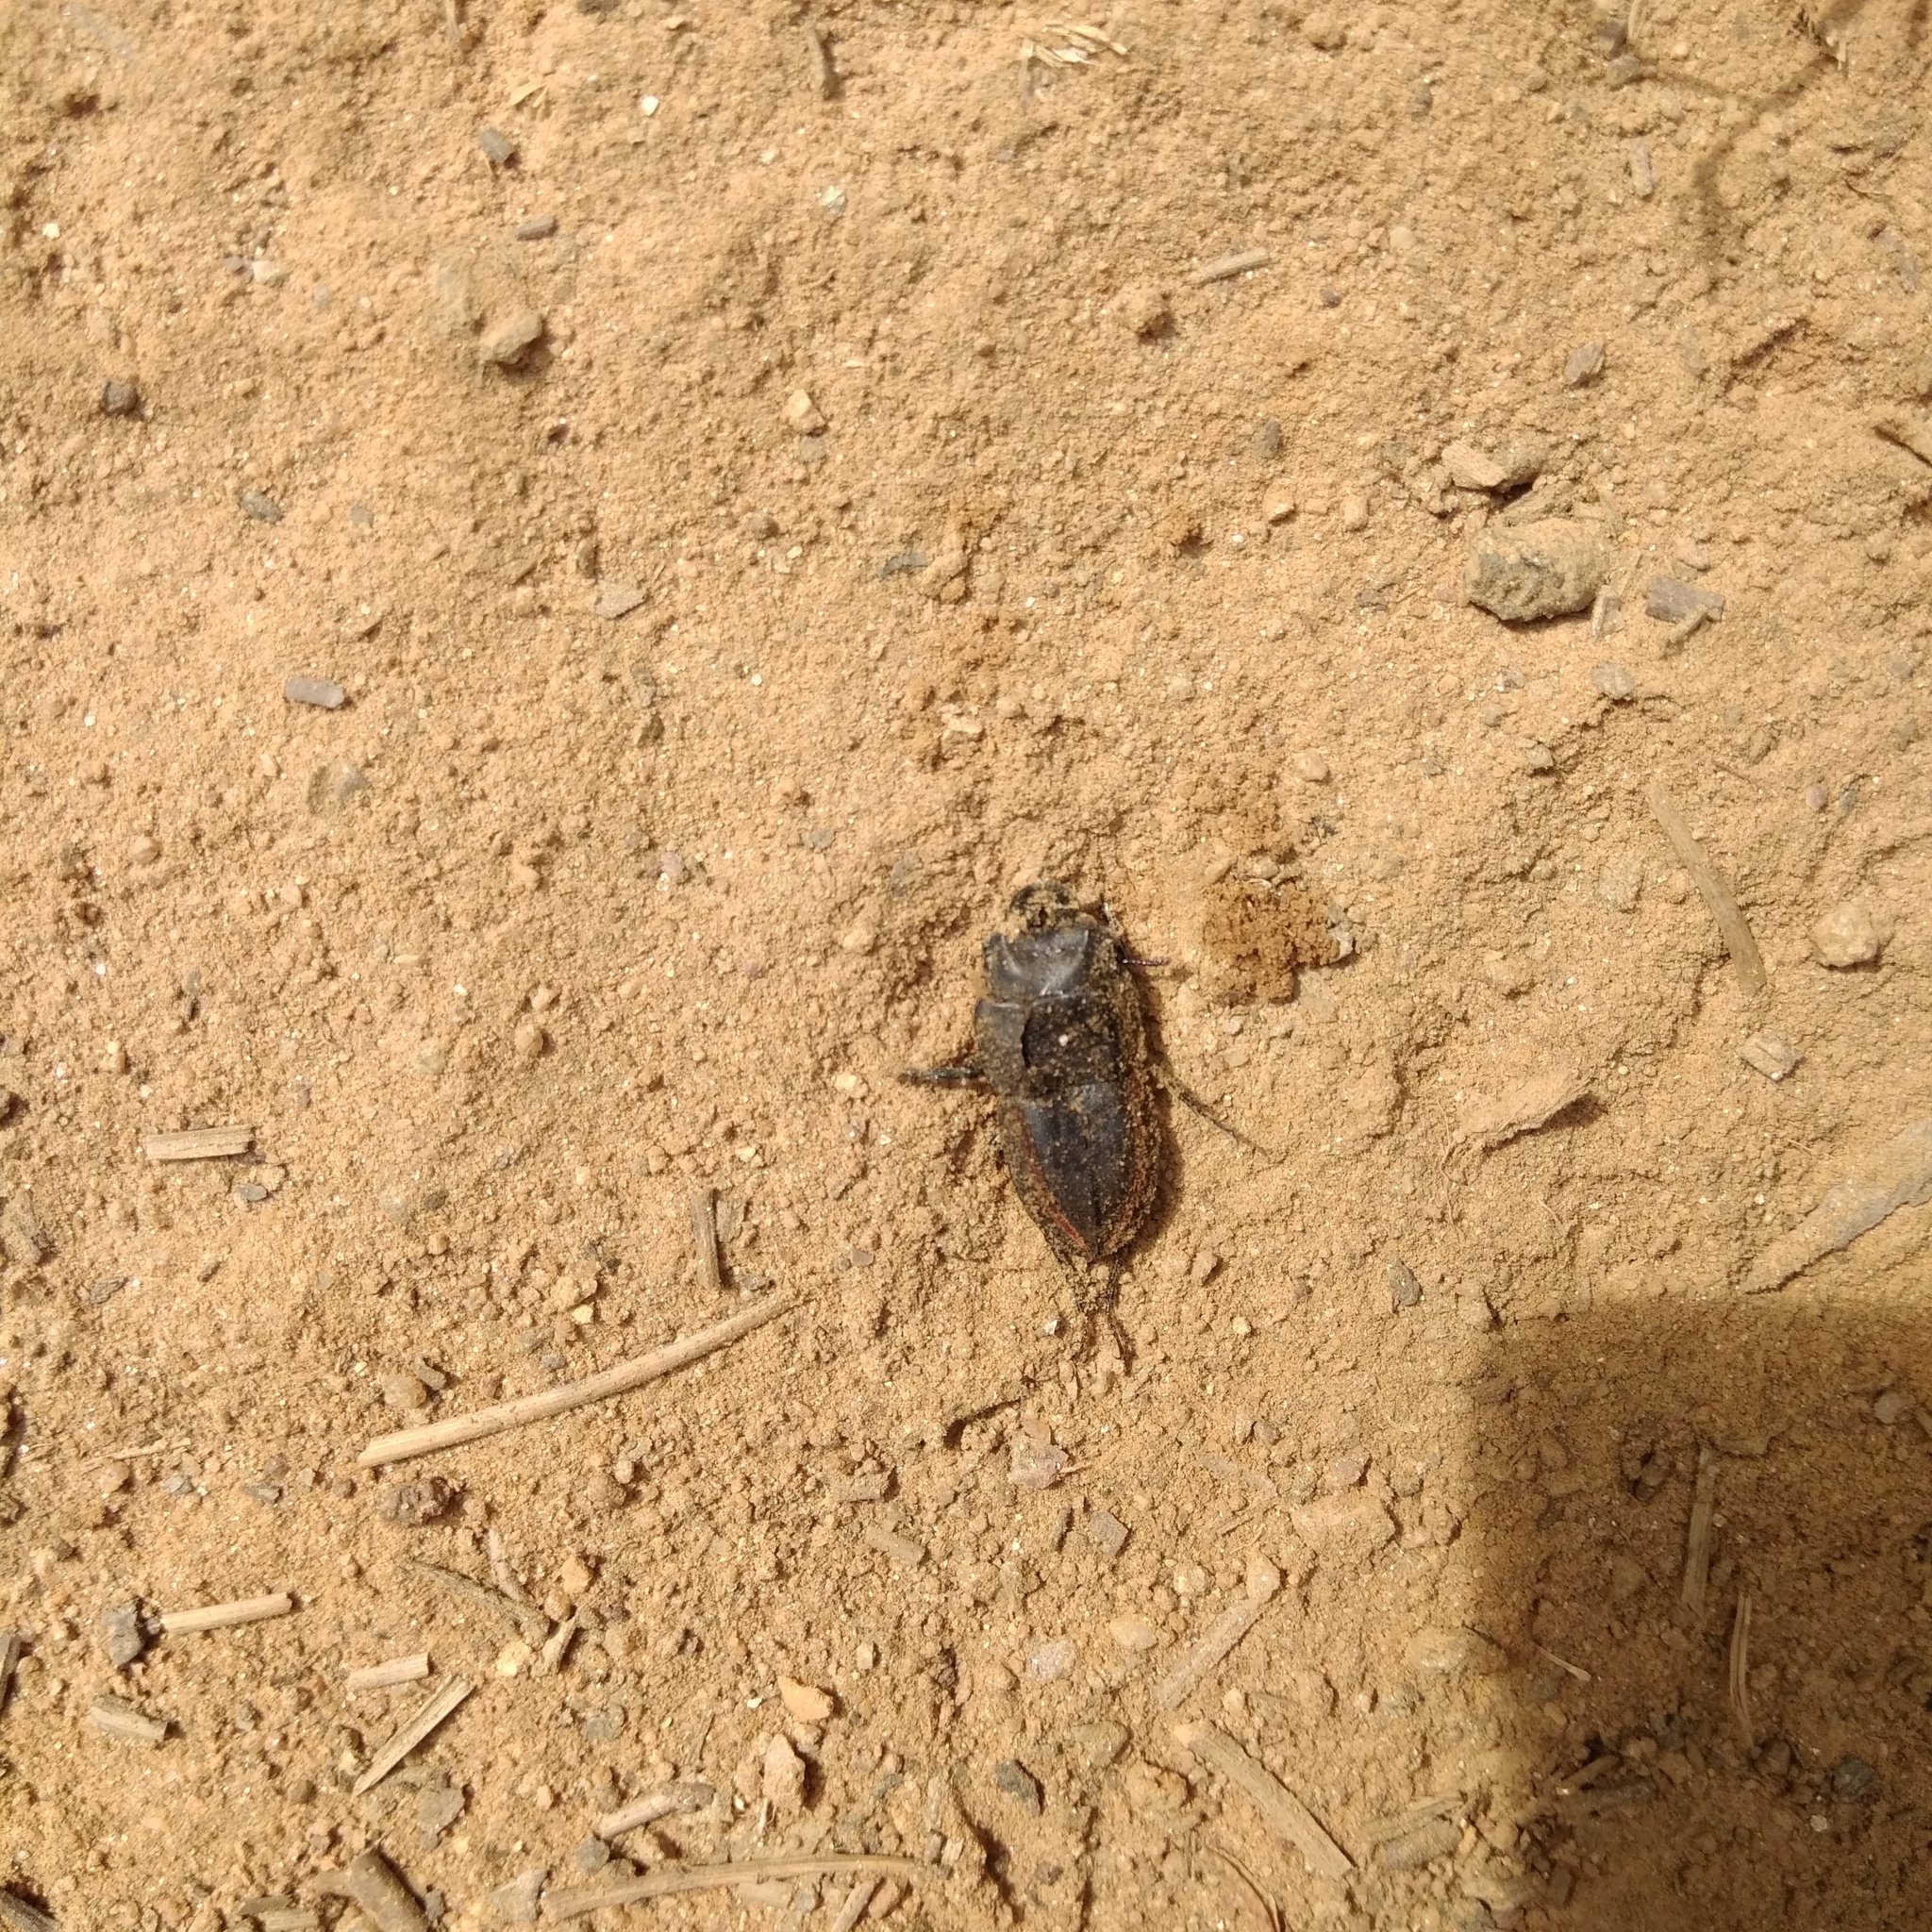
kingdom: Animalia
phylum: Arthropoda
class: Insecta
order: Coleoptera
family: Lucanidae
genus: Erichius
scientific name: Erichius vittatus
